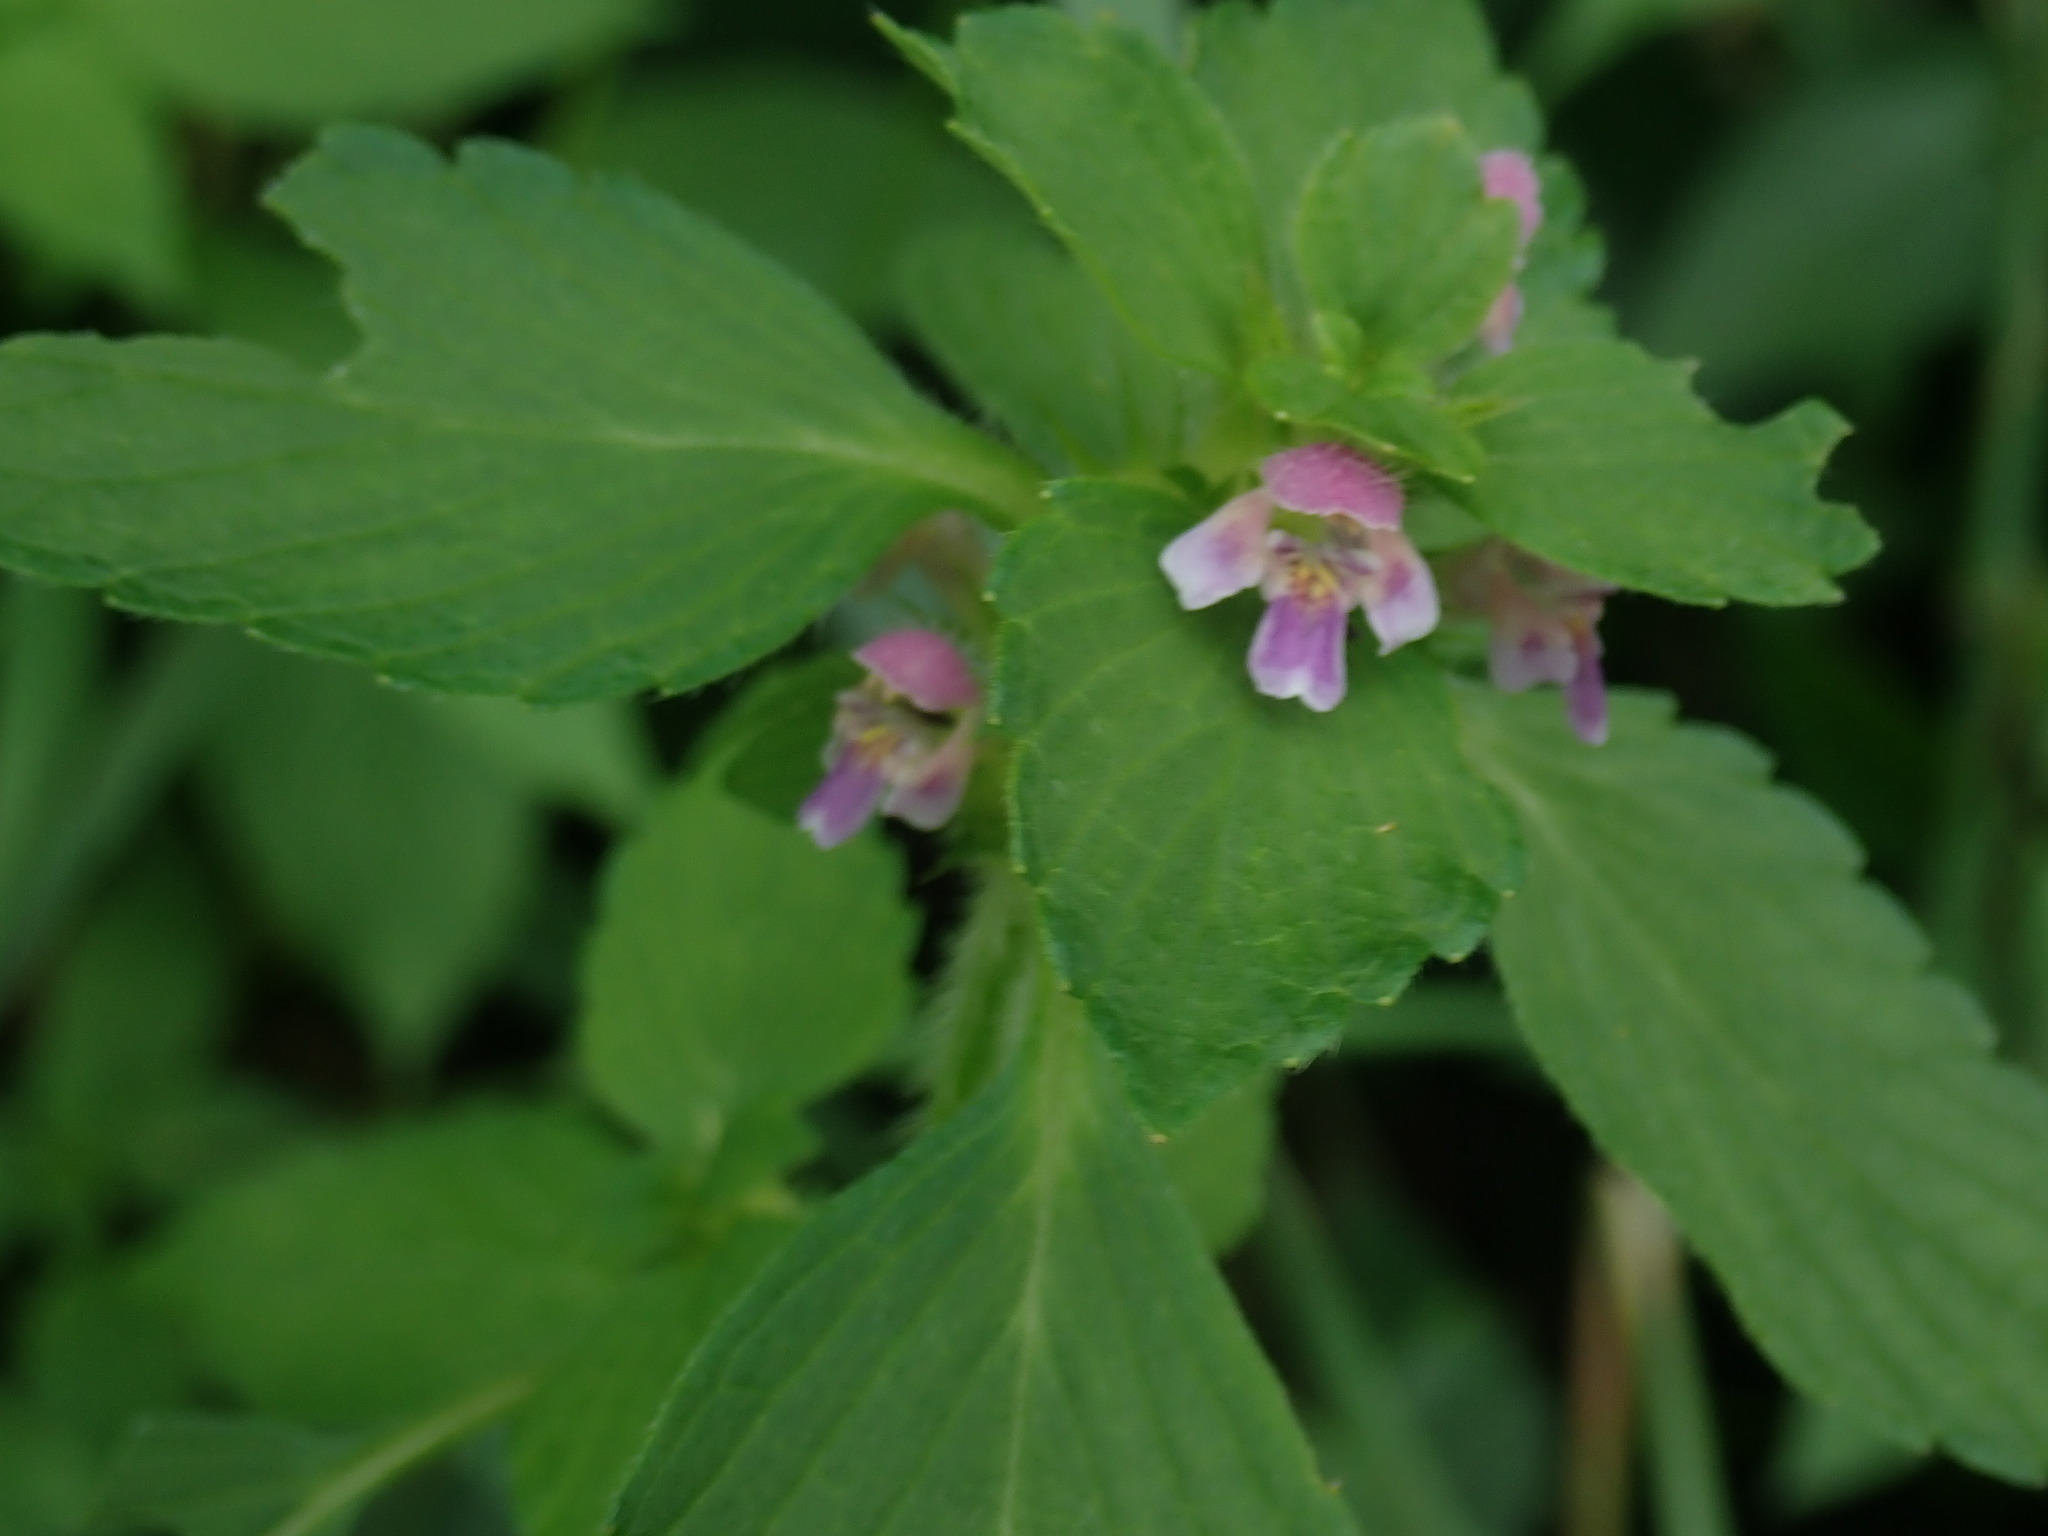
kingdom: Plantae
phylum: Tracheophyta
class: Magnoliopsida
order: Lamiales
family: Lamiaceae
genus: Galeopsis
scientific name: Galeopsis bifida
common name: Bifid hemp-nettle
